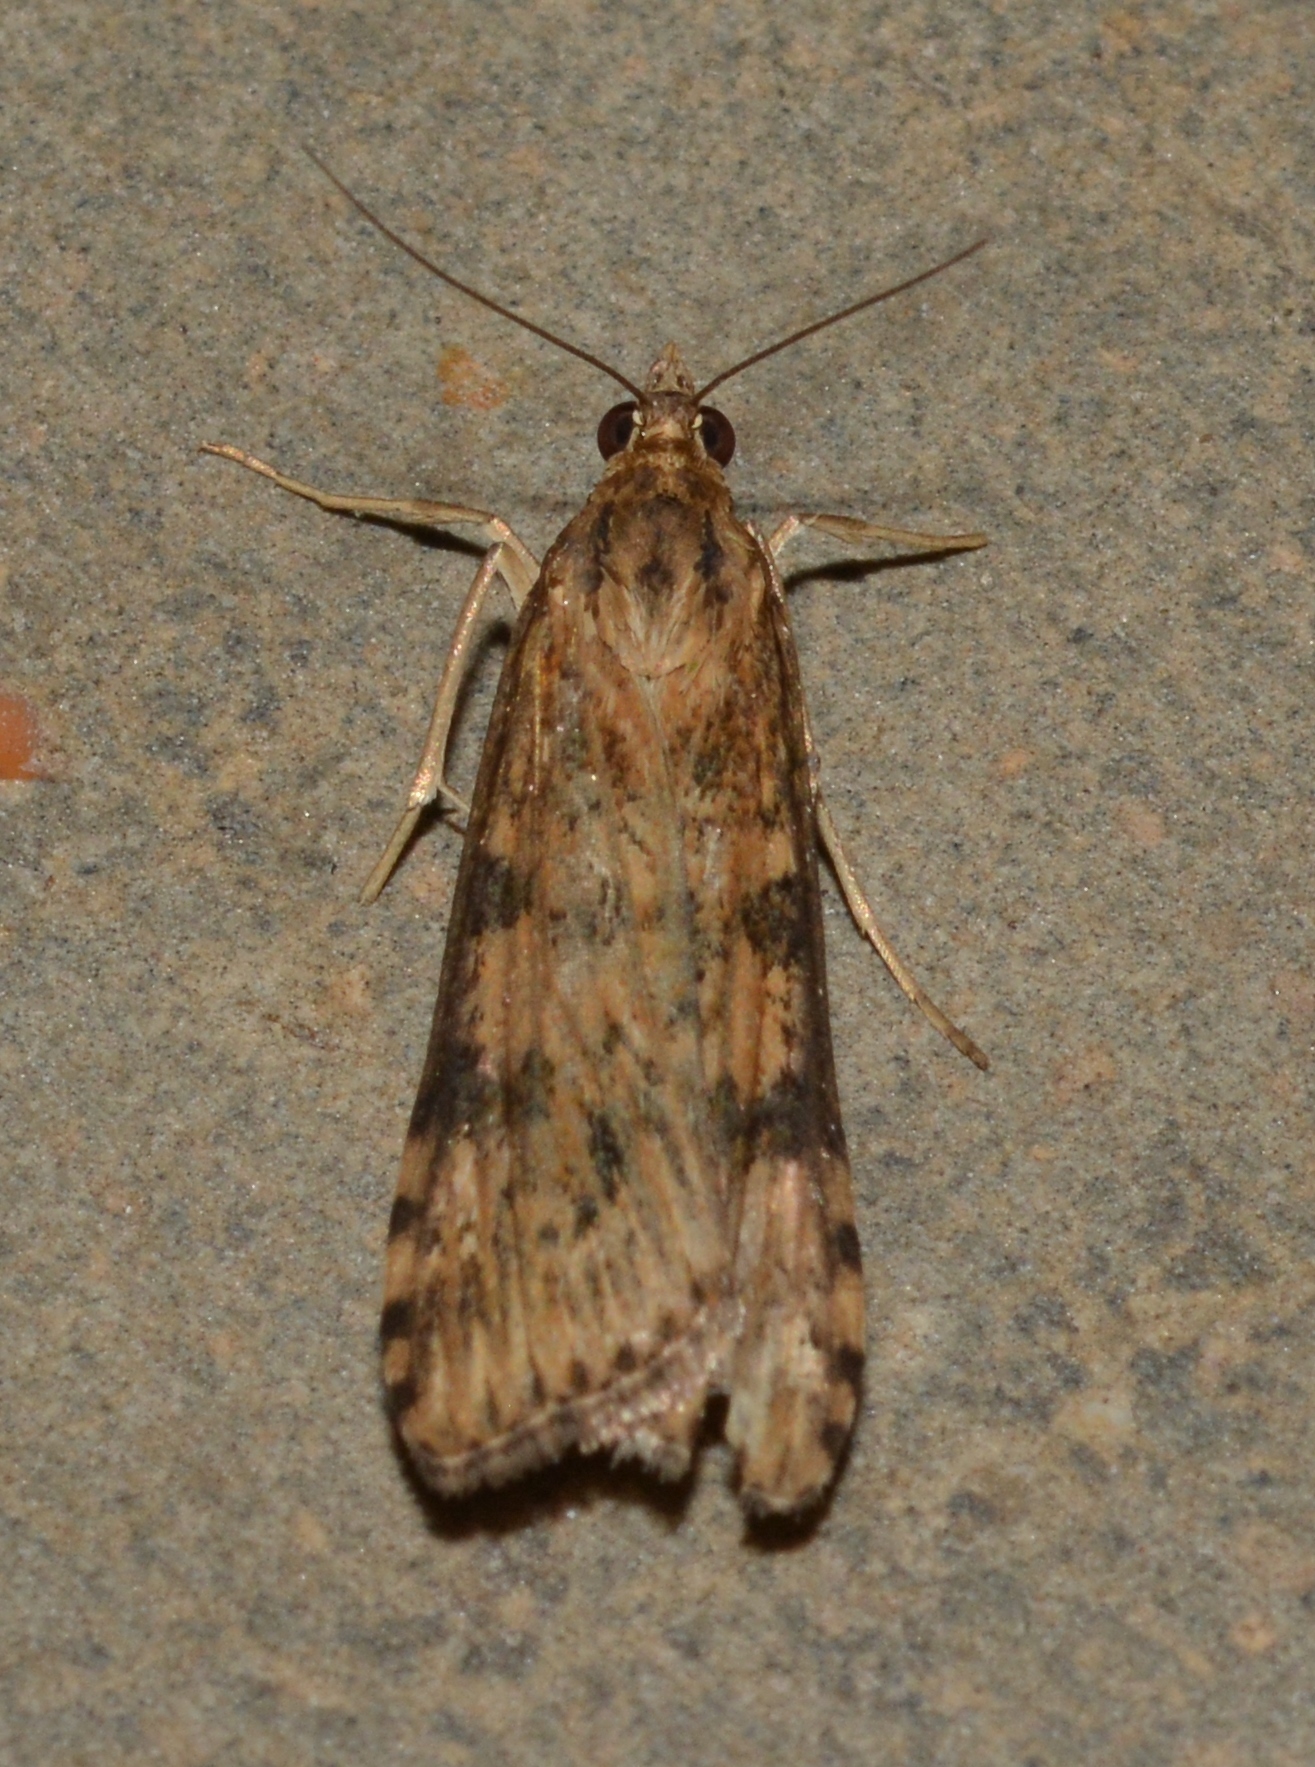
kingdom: Animalia
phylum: Arthropoda
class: Insecta
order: Lepidoptera
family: Crambidae
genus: Nomophila
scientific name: Nomophila nearctica
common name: American rush veneer
